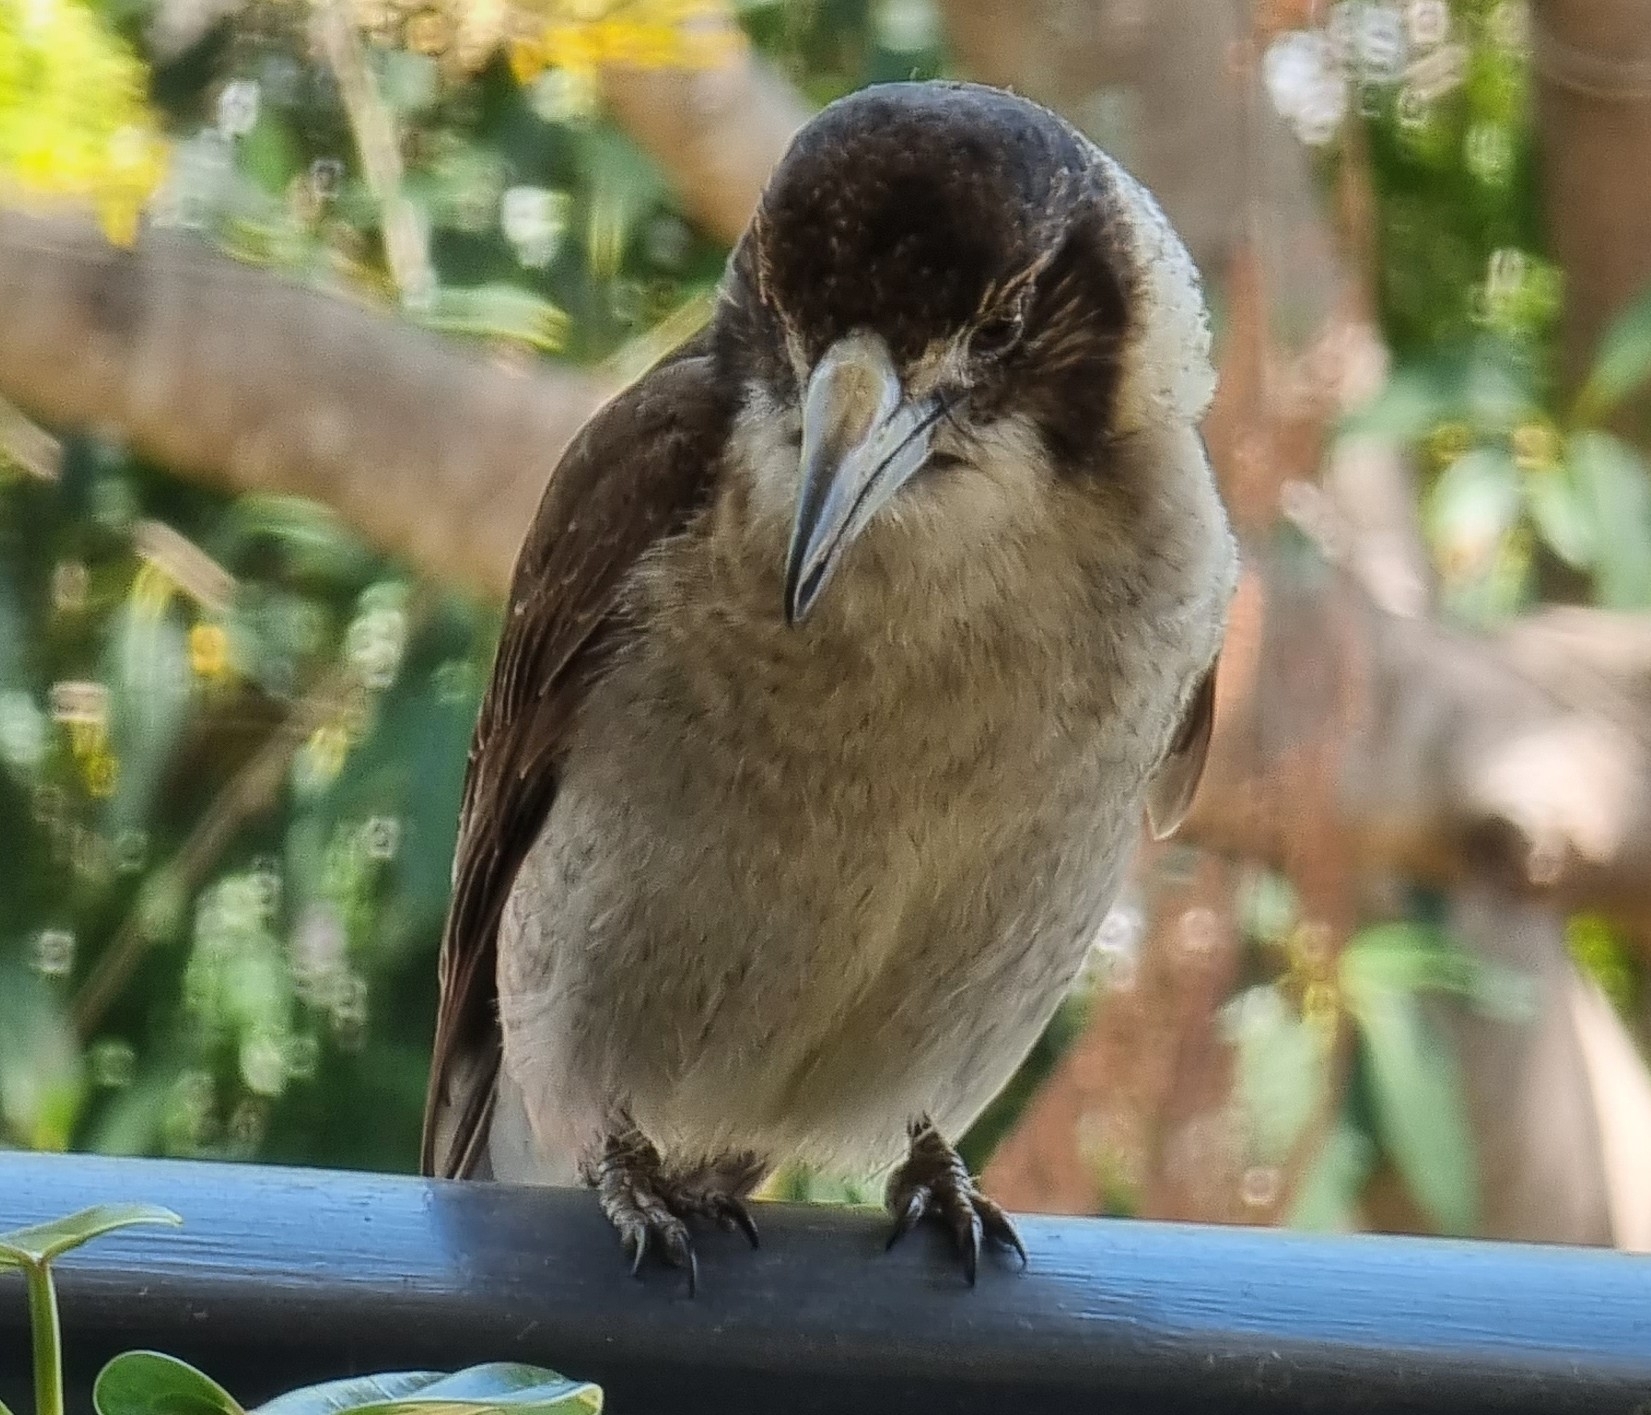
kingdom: Animalia
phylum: Chordata
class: Aves
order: Passeriformes
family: Cracticidae
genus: Cracticus
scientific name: Cracticus torquatus
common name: Grey butcherbird
